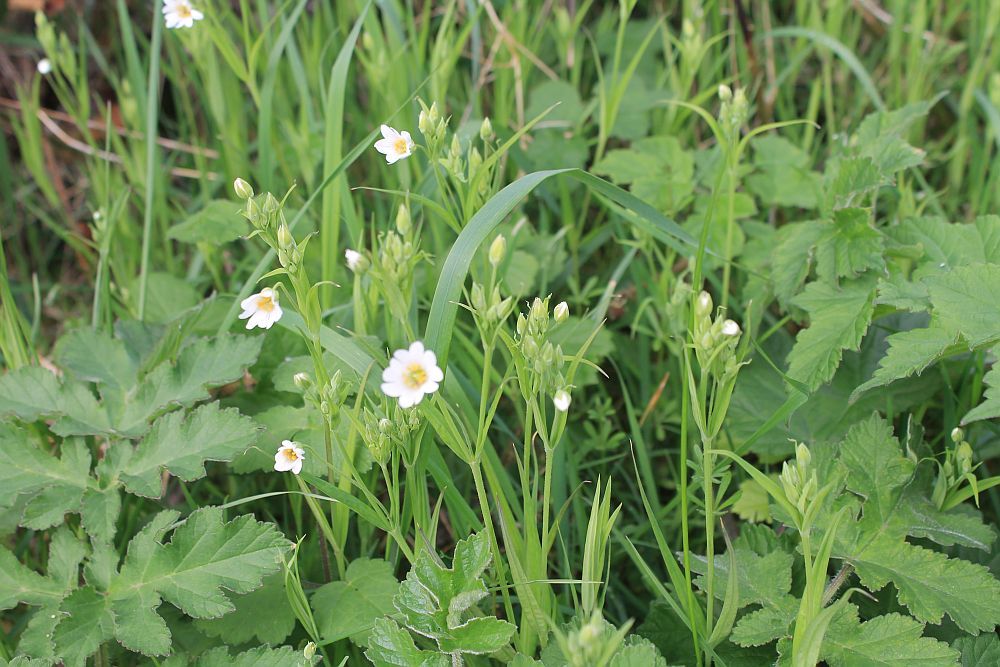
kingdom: Plantae
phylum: Tracheophyta
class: Magnoliopsida
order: Caryophyllales
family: Caryophyllaceae
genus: Rabelera
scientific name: Rabelera holostea
